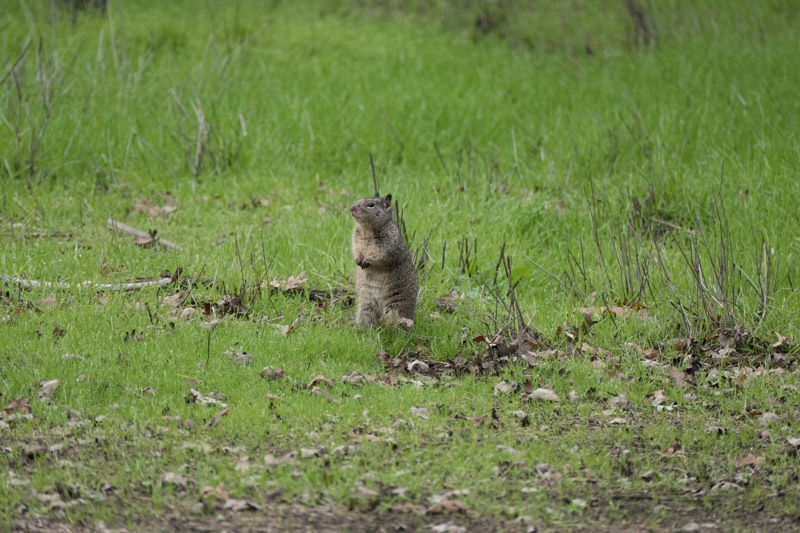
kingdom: Animalia
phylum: Chordata
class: Mammalia
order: Rodentia
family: Sciuridae
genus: Otospermophilus
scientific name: Otospermophilus beecheyi
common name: California ground squirrel
